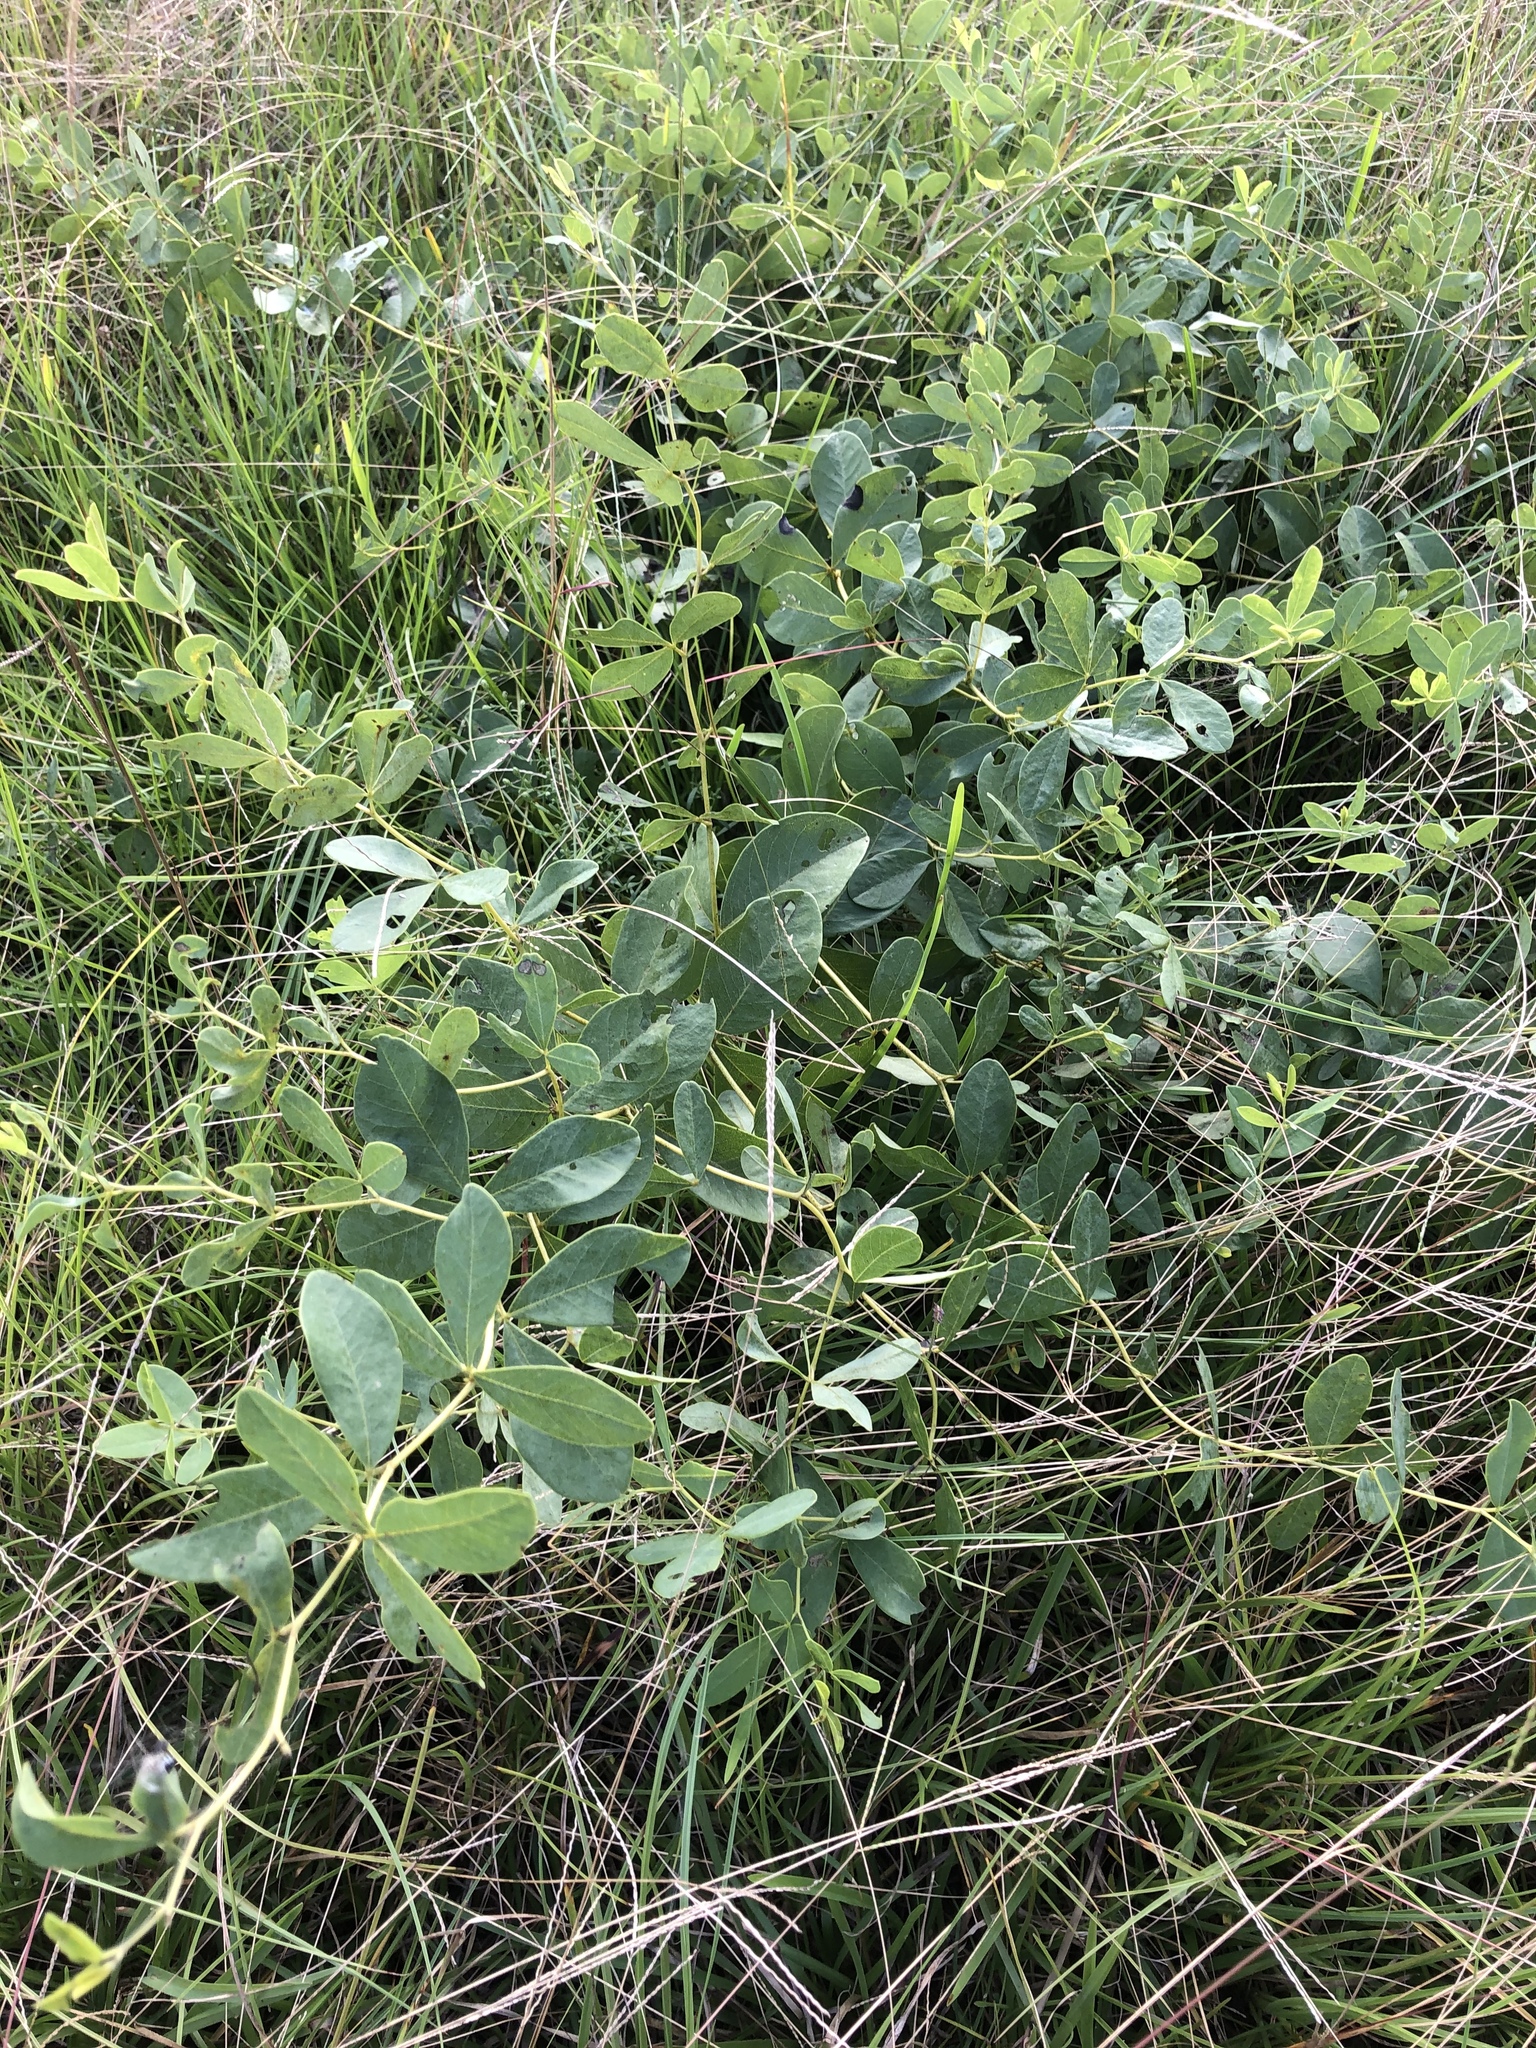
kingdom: Plantae
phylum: Tracheophyta
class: Magnoliopsida
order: Fabales
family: Fabaceae
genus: Baptisia
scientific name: Baptisia alba
